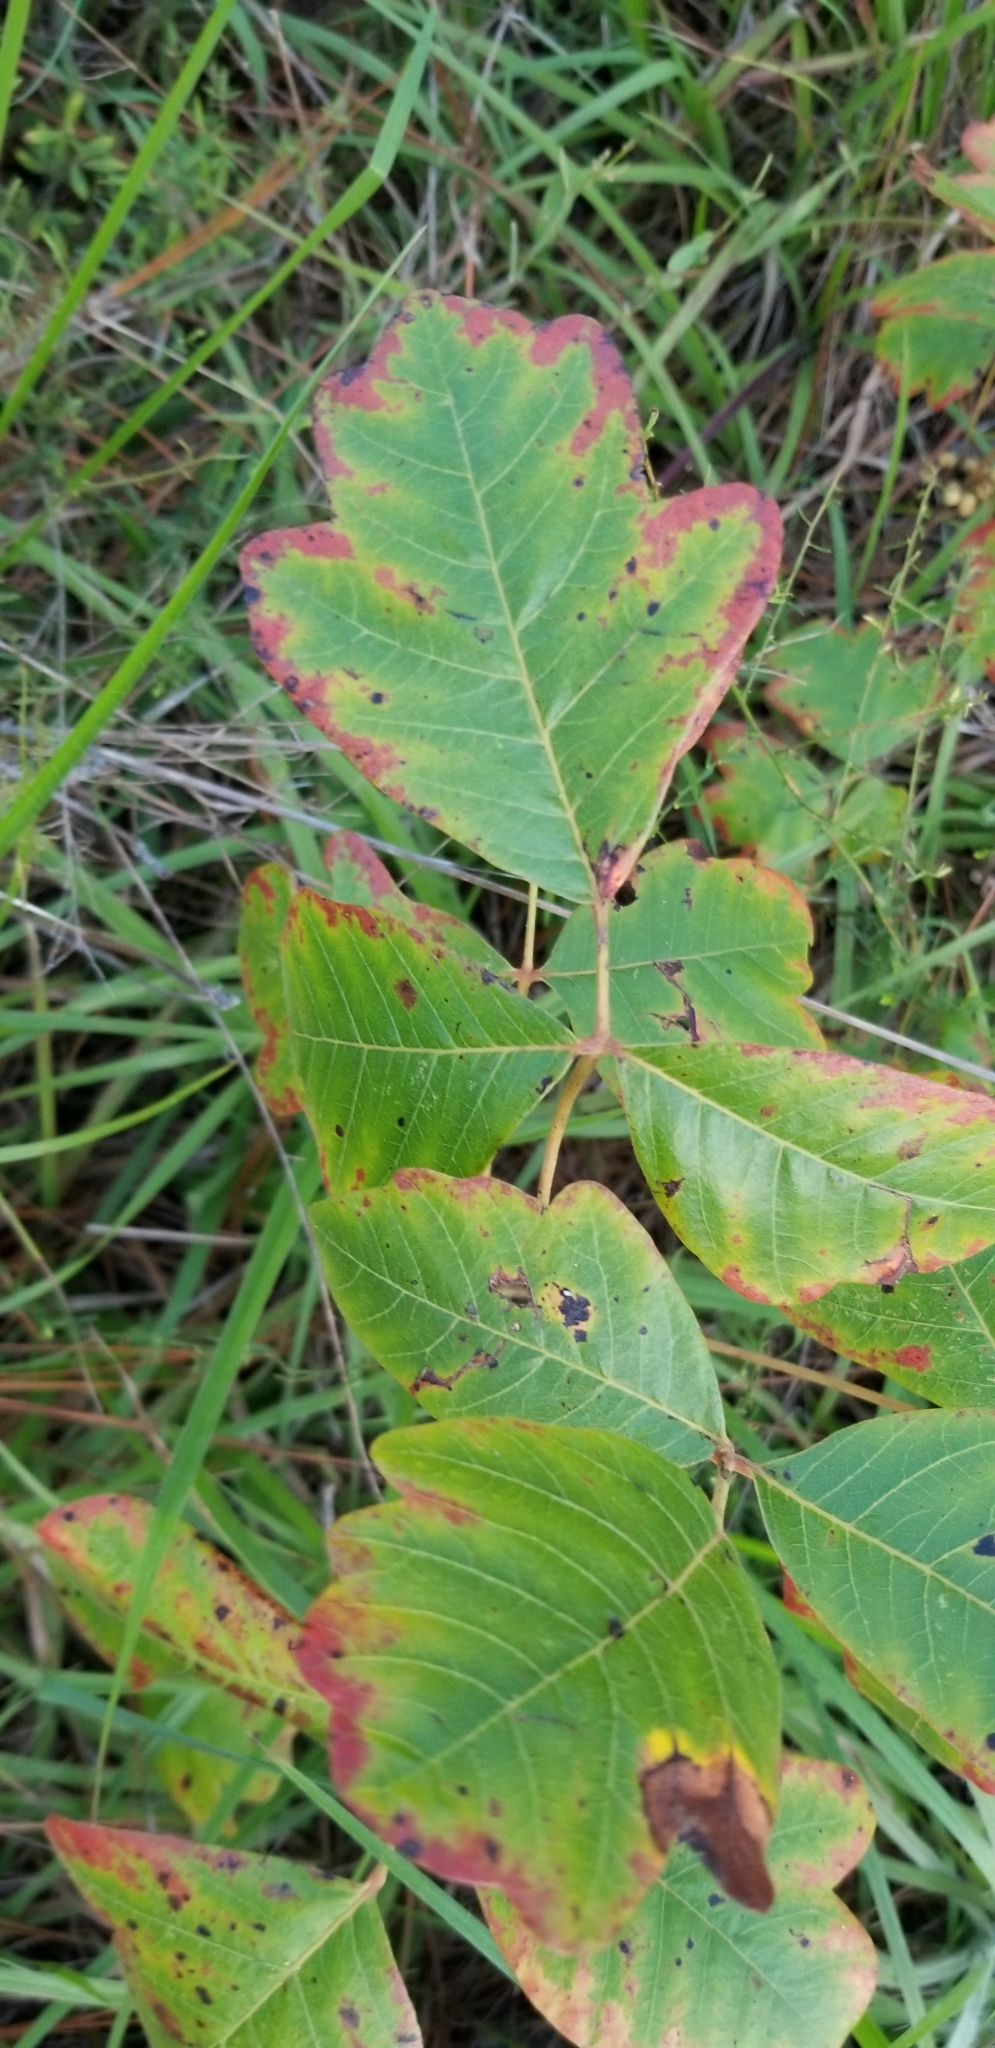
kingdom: Plantae
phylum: Tracheophyta
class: Magnoliopsida
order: Sapindales
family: Anacardiaceae
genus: Toxicodendron
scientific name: Toxicodendron radicans
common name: Poison ivy
